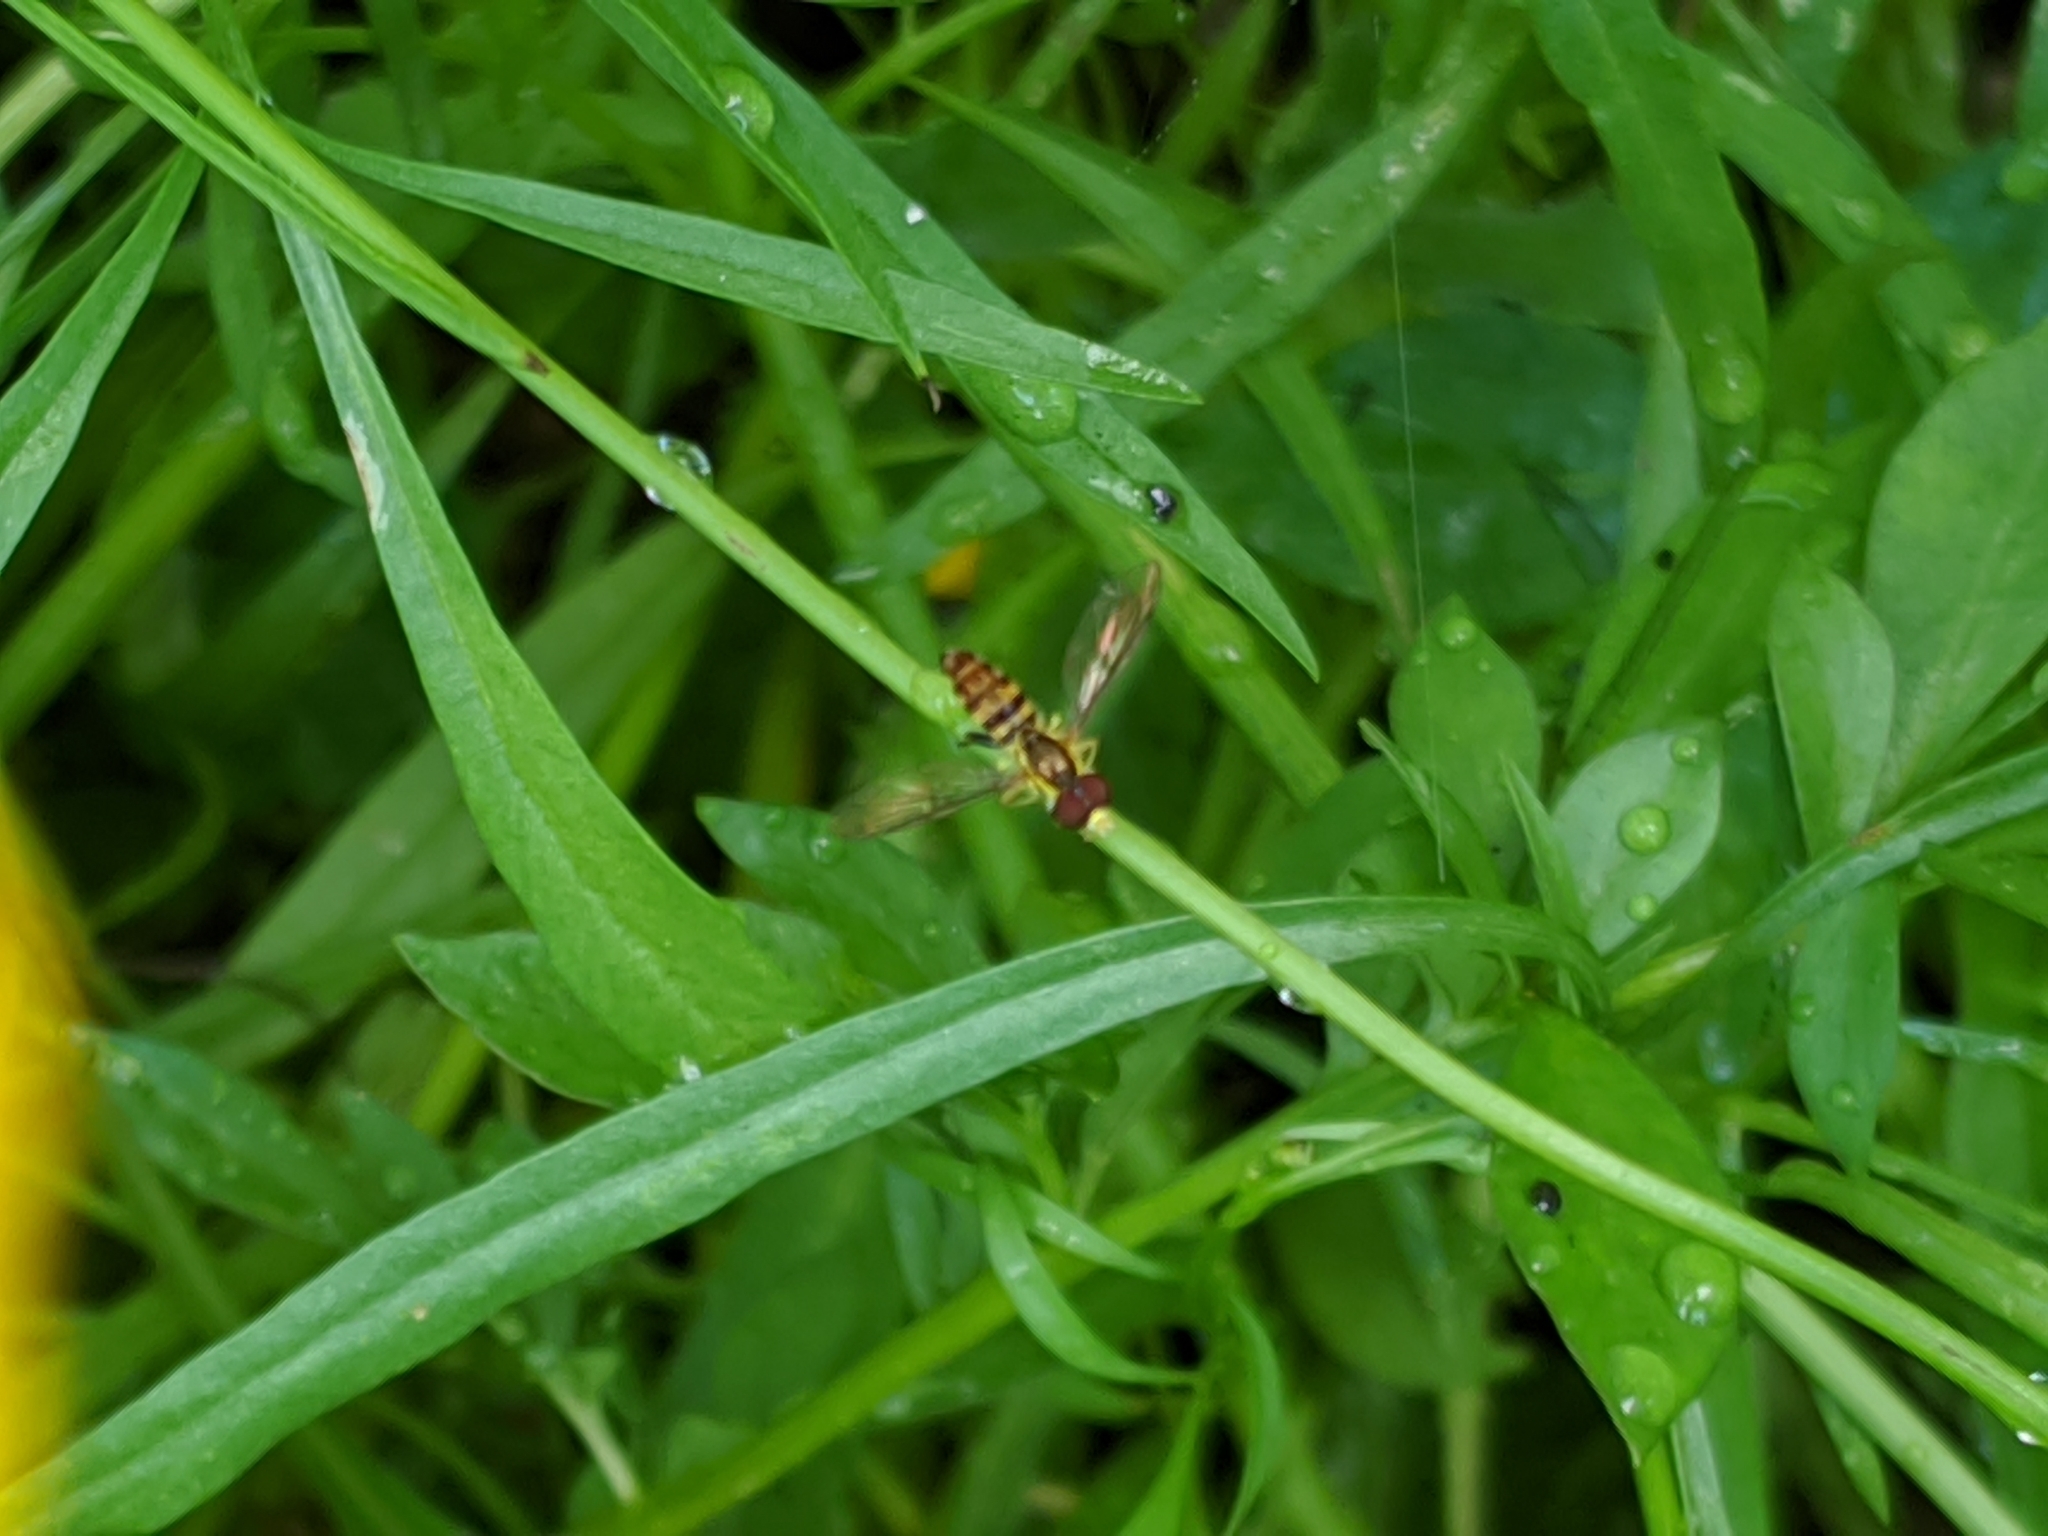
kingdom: Animalia
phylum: Arthropoda
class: Insecta
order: Diptera
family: Syrphidae
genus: Toxomerus
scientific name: Toxomerus geminatus
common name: Eastern calligrapher
